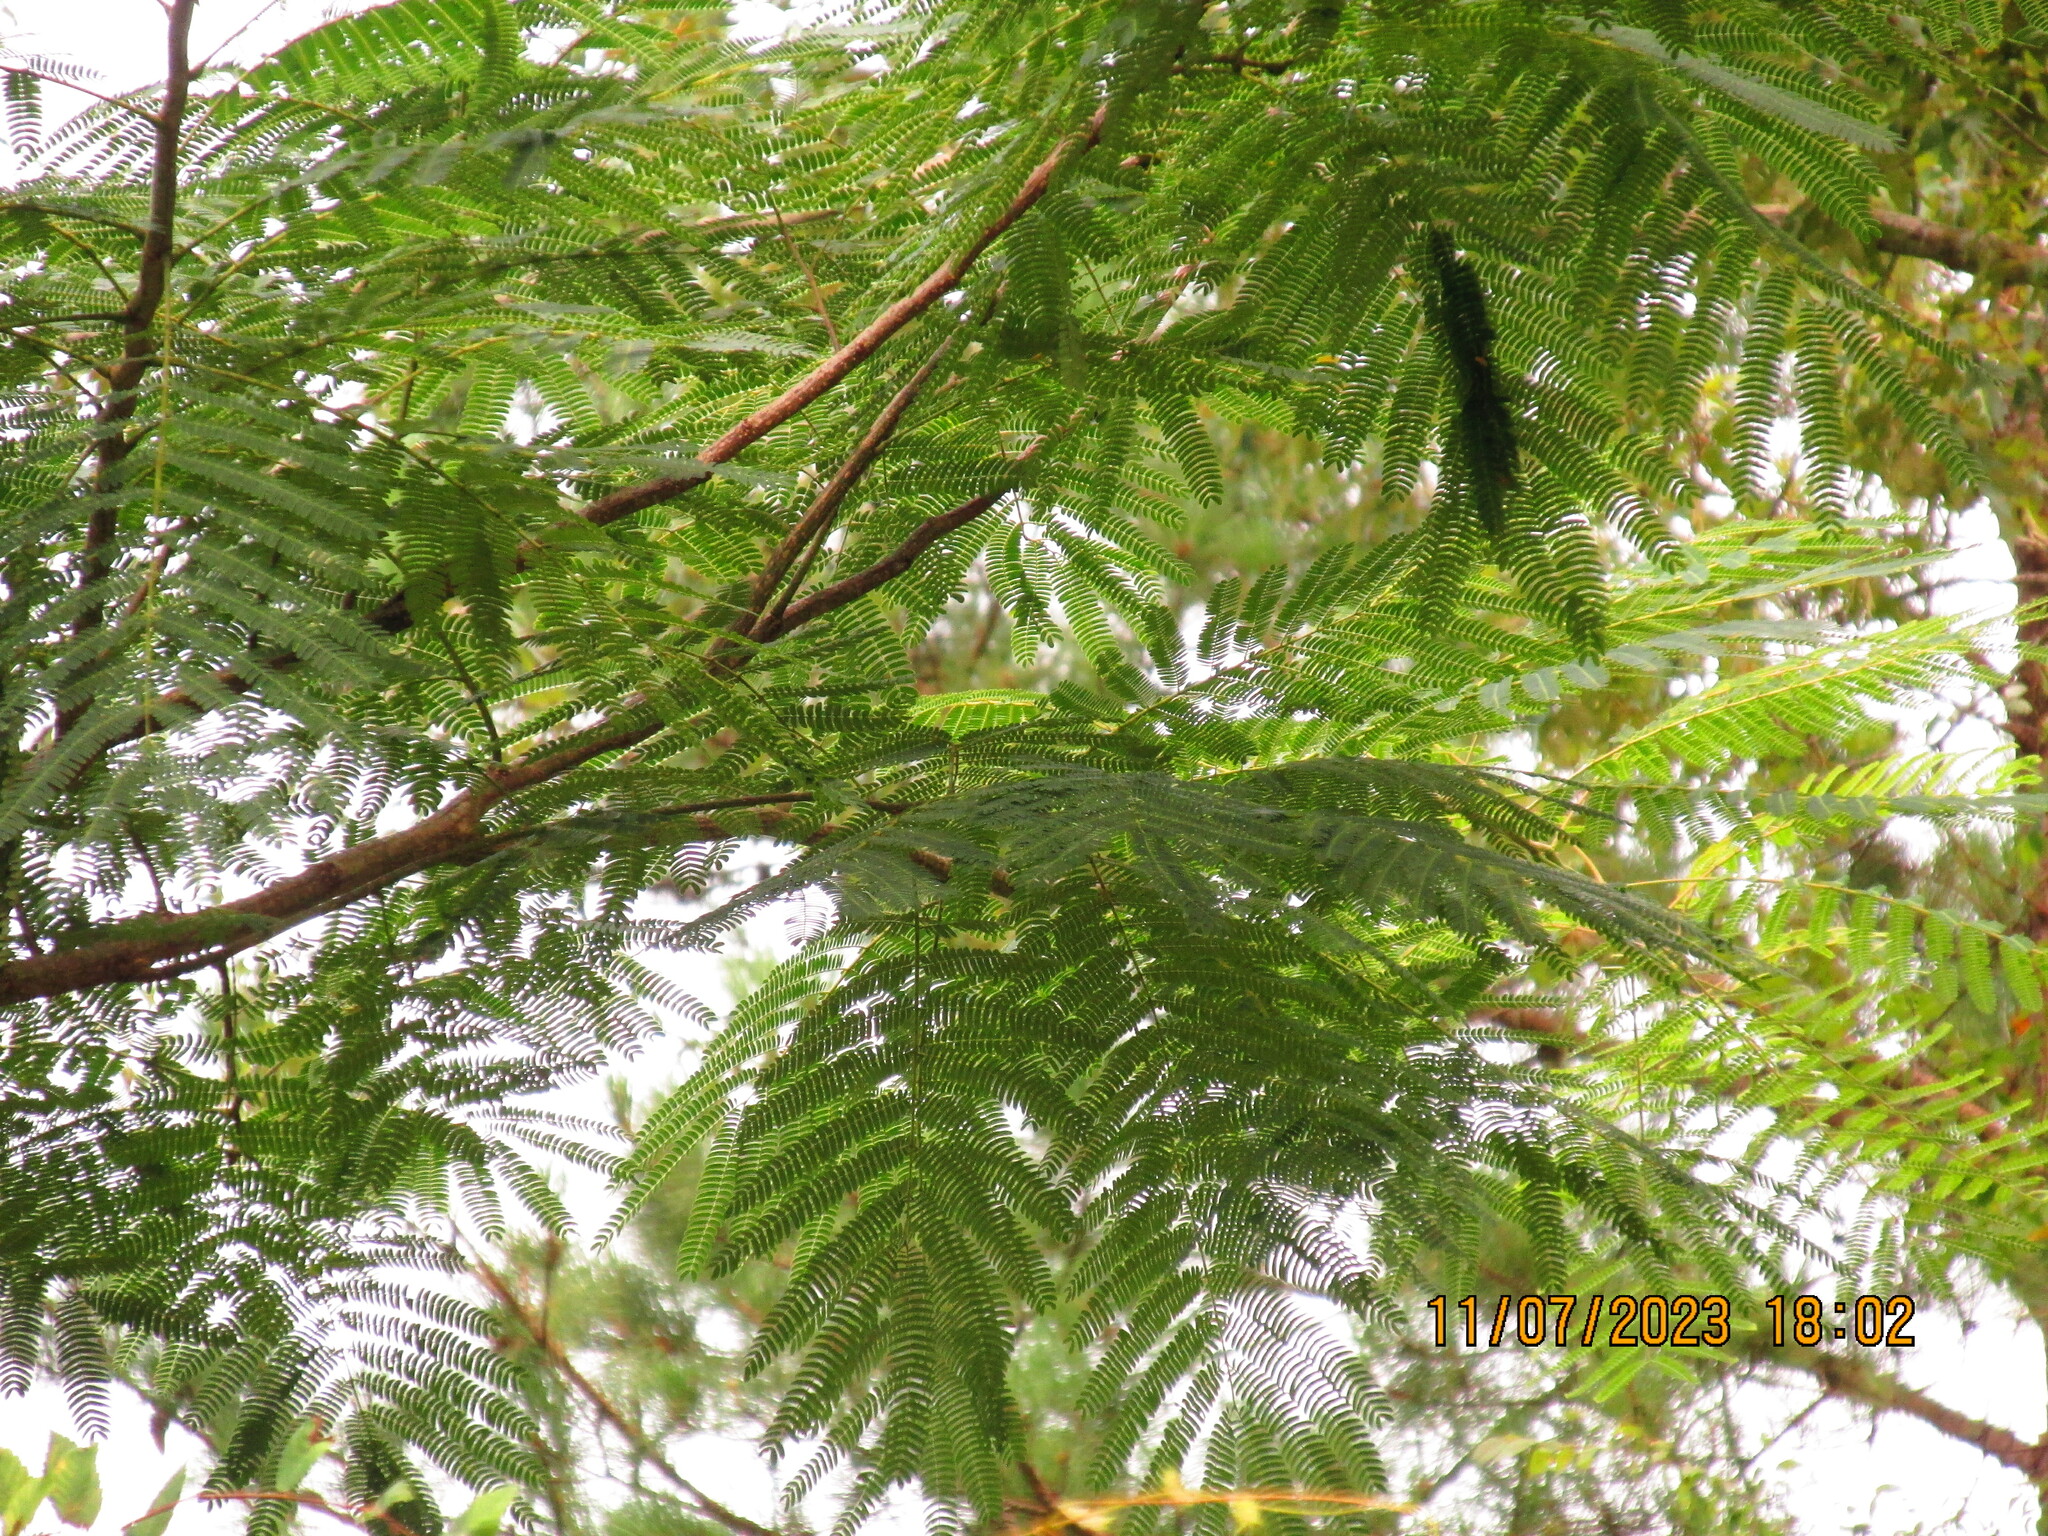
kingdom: Plantae
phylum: Tracheophyta
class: Magnoliopsida
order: Fabales
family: Fabaceae
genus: Albizia
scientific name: Albizia julibrissin
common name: Silktree
